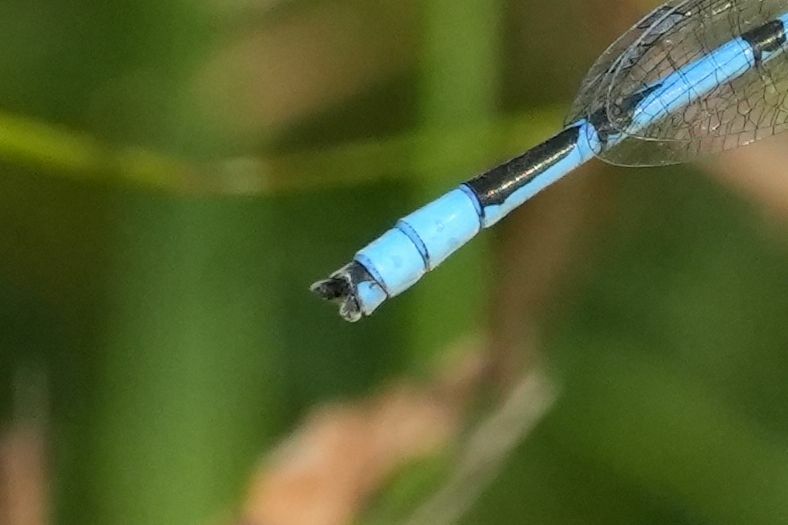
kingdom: Animalia
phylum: Arthropoda
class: Insecta
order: Odonata
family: Coenagrionidae
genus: Enallagma
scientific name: Enallagma civile
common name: Damselfly
